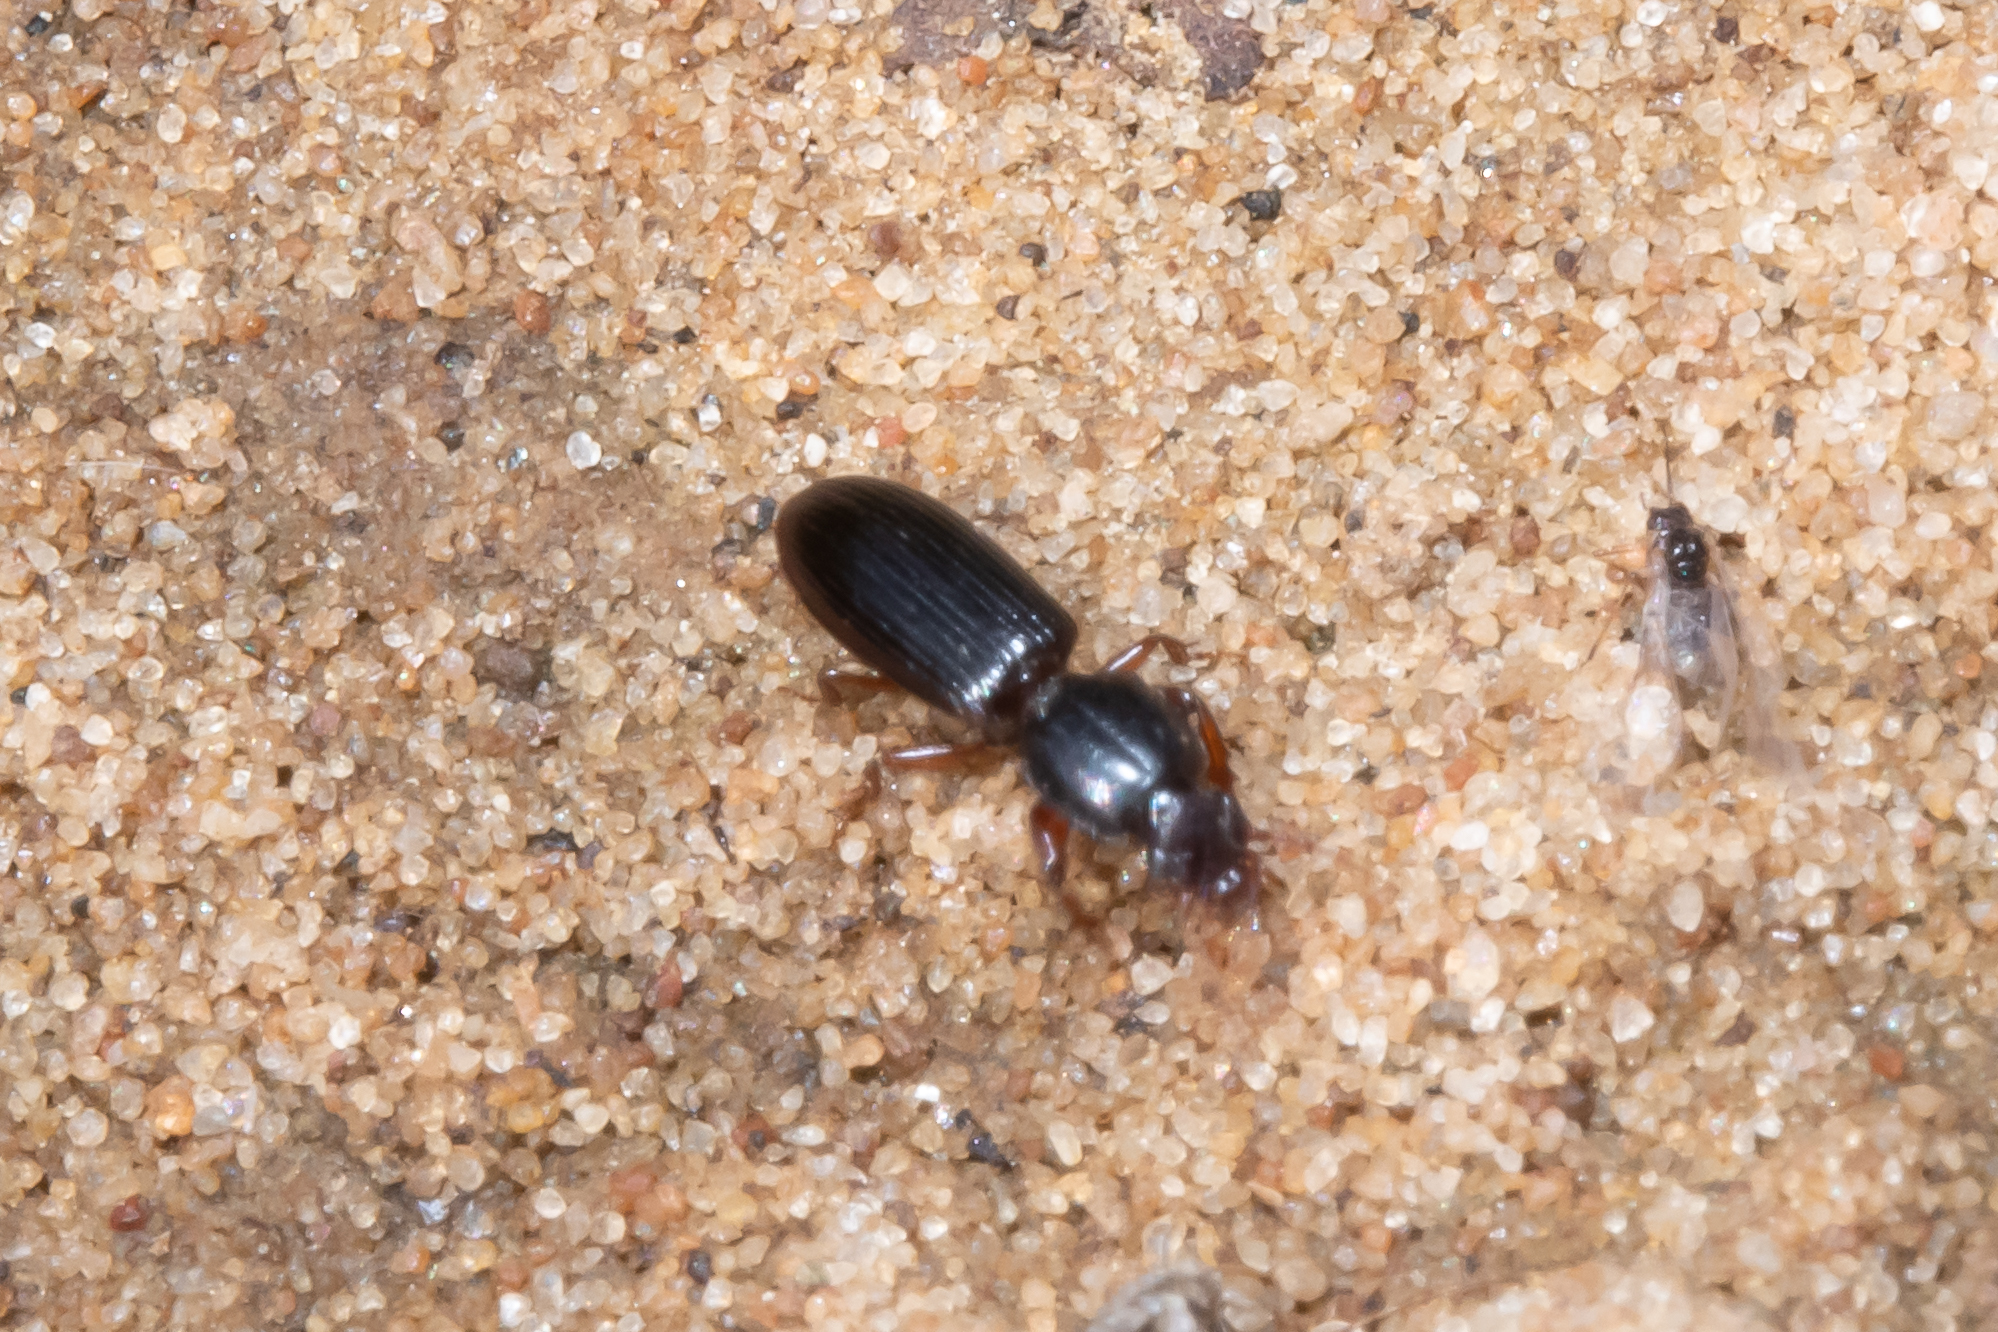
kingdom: Animalia
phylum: Arthropoda
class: Insecta
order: Coleoptera
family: Carabidae
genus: Clivina
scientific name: Clivina fossor
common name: Digging pedunculate ground beetle
